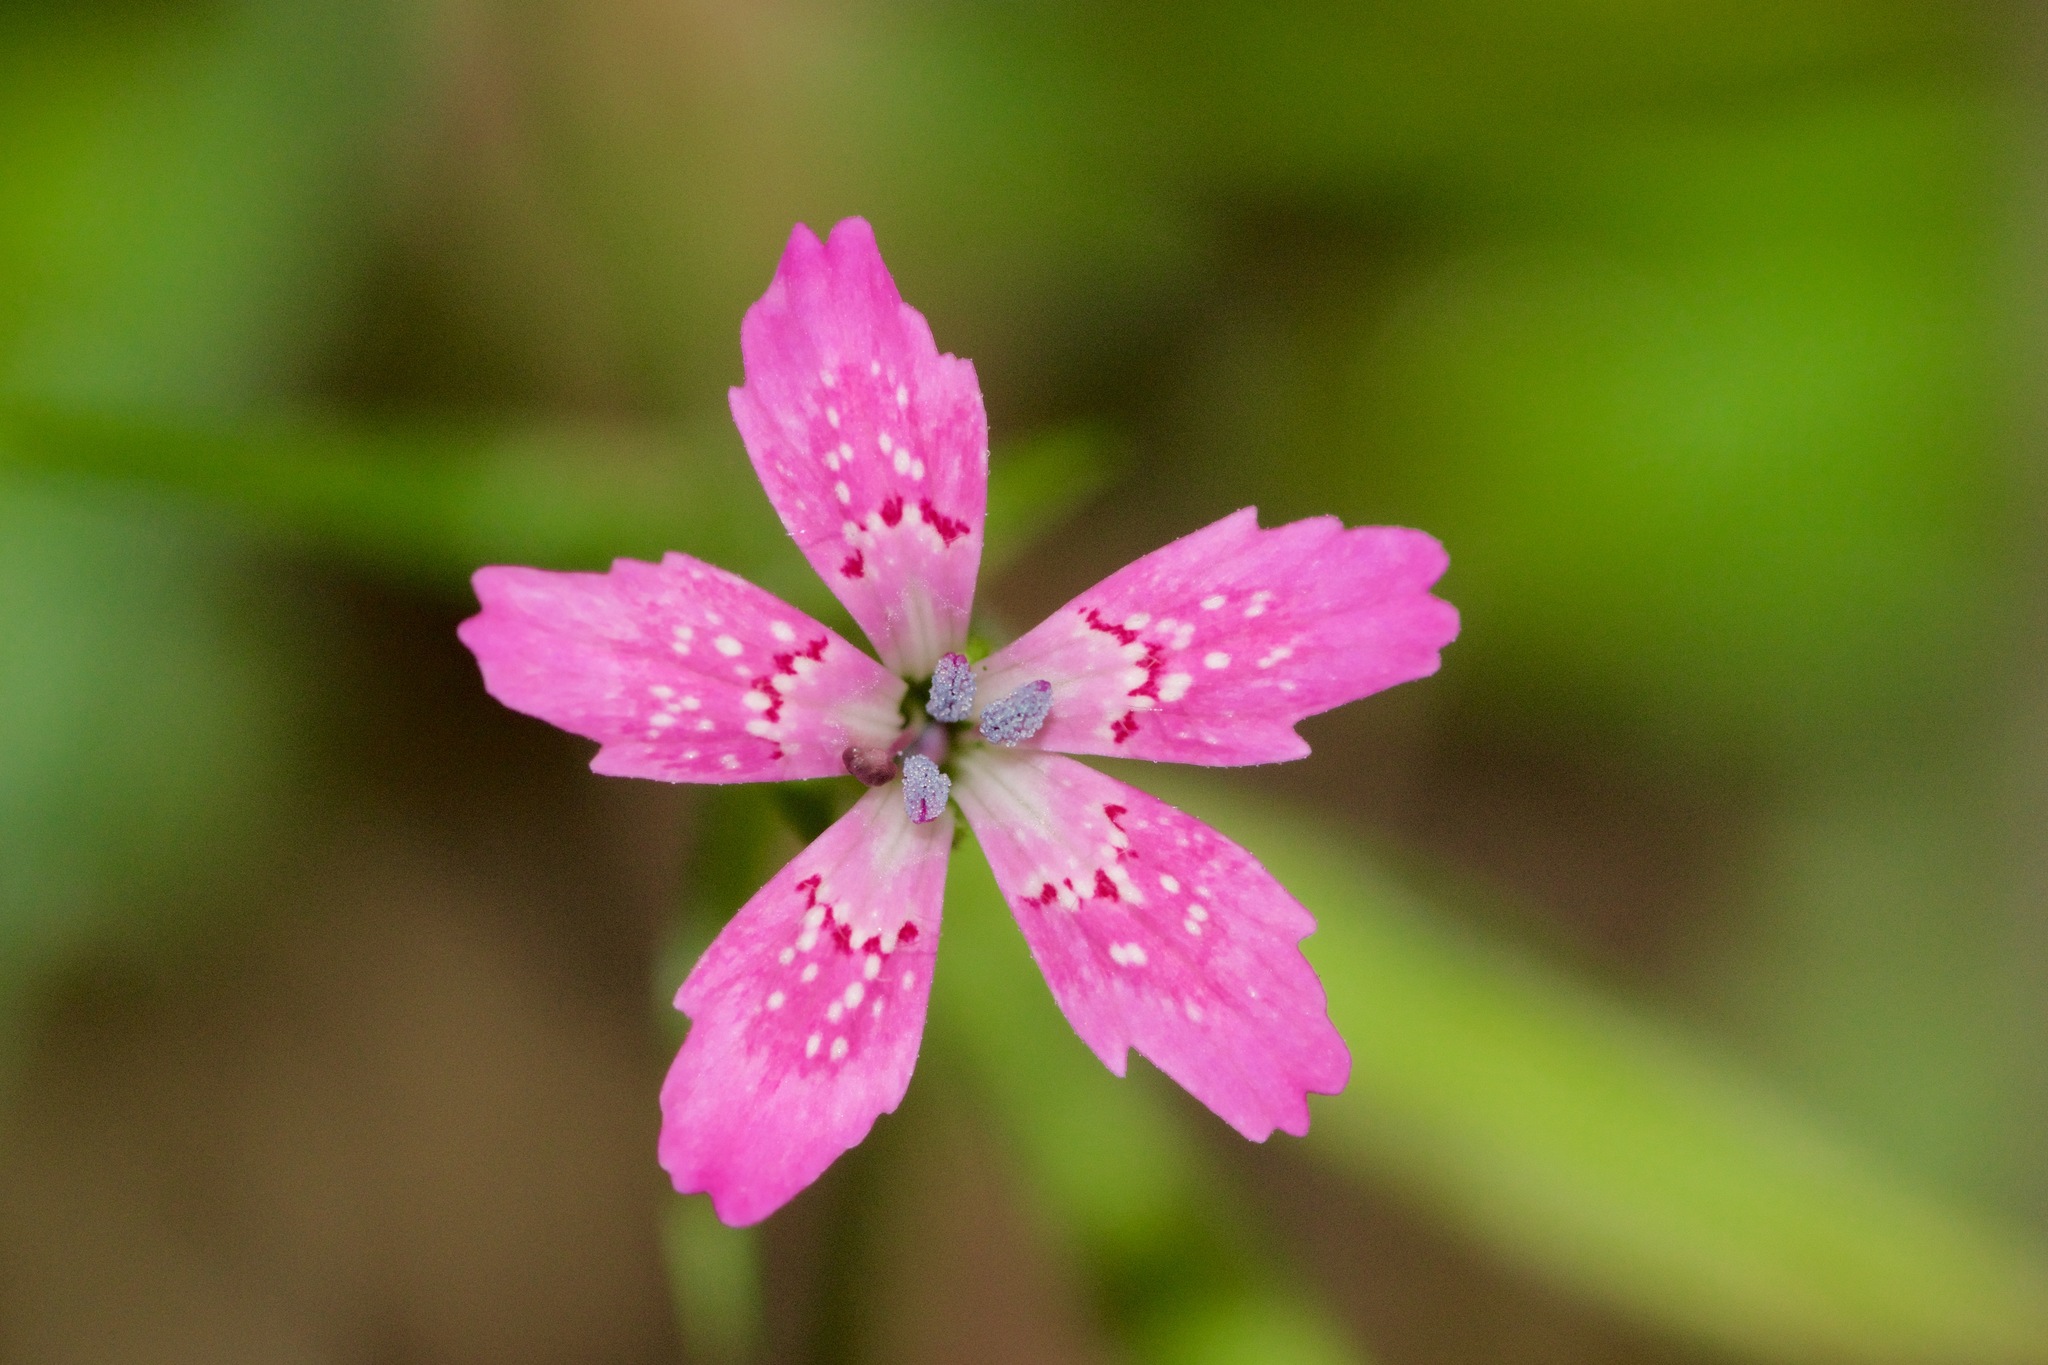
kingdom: Plantae
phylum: Tracheophyta
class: Magnoliopsida
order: Caryophyllales
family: Caryophyllaceae
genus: Dianthus
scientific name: Dianthus armeria
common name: Deptford pink
